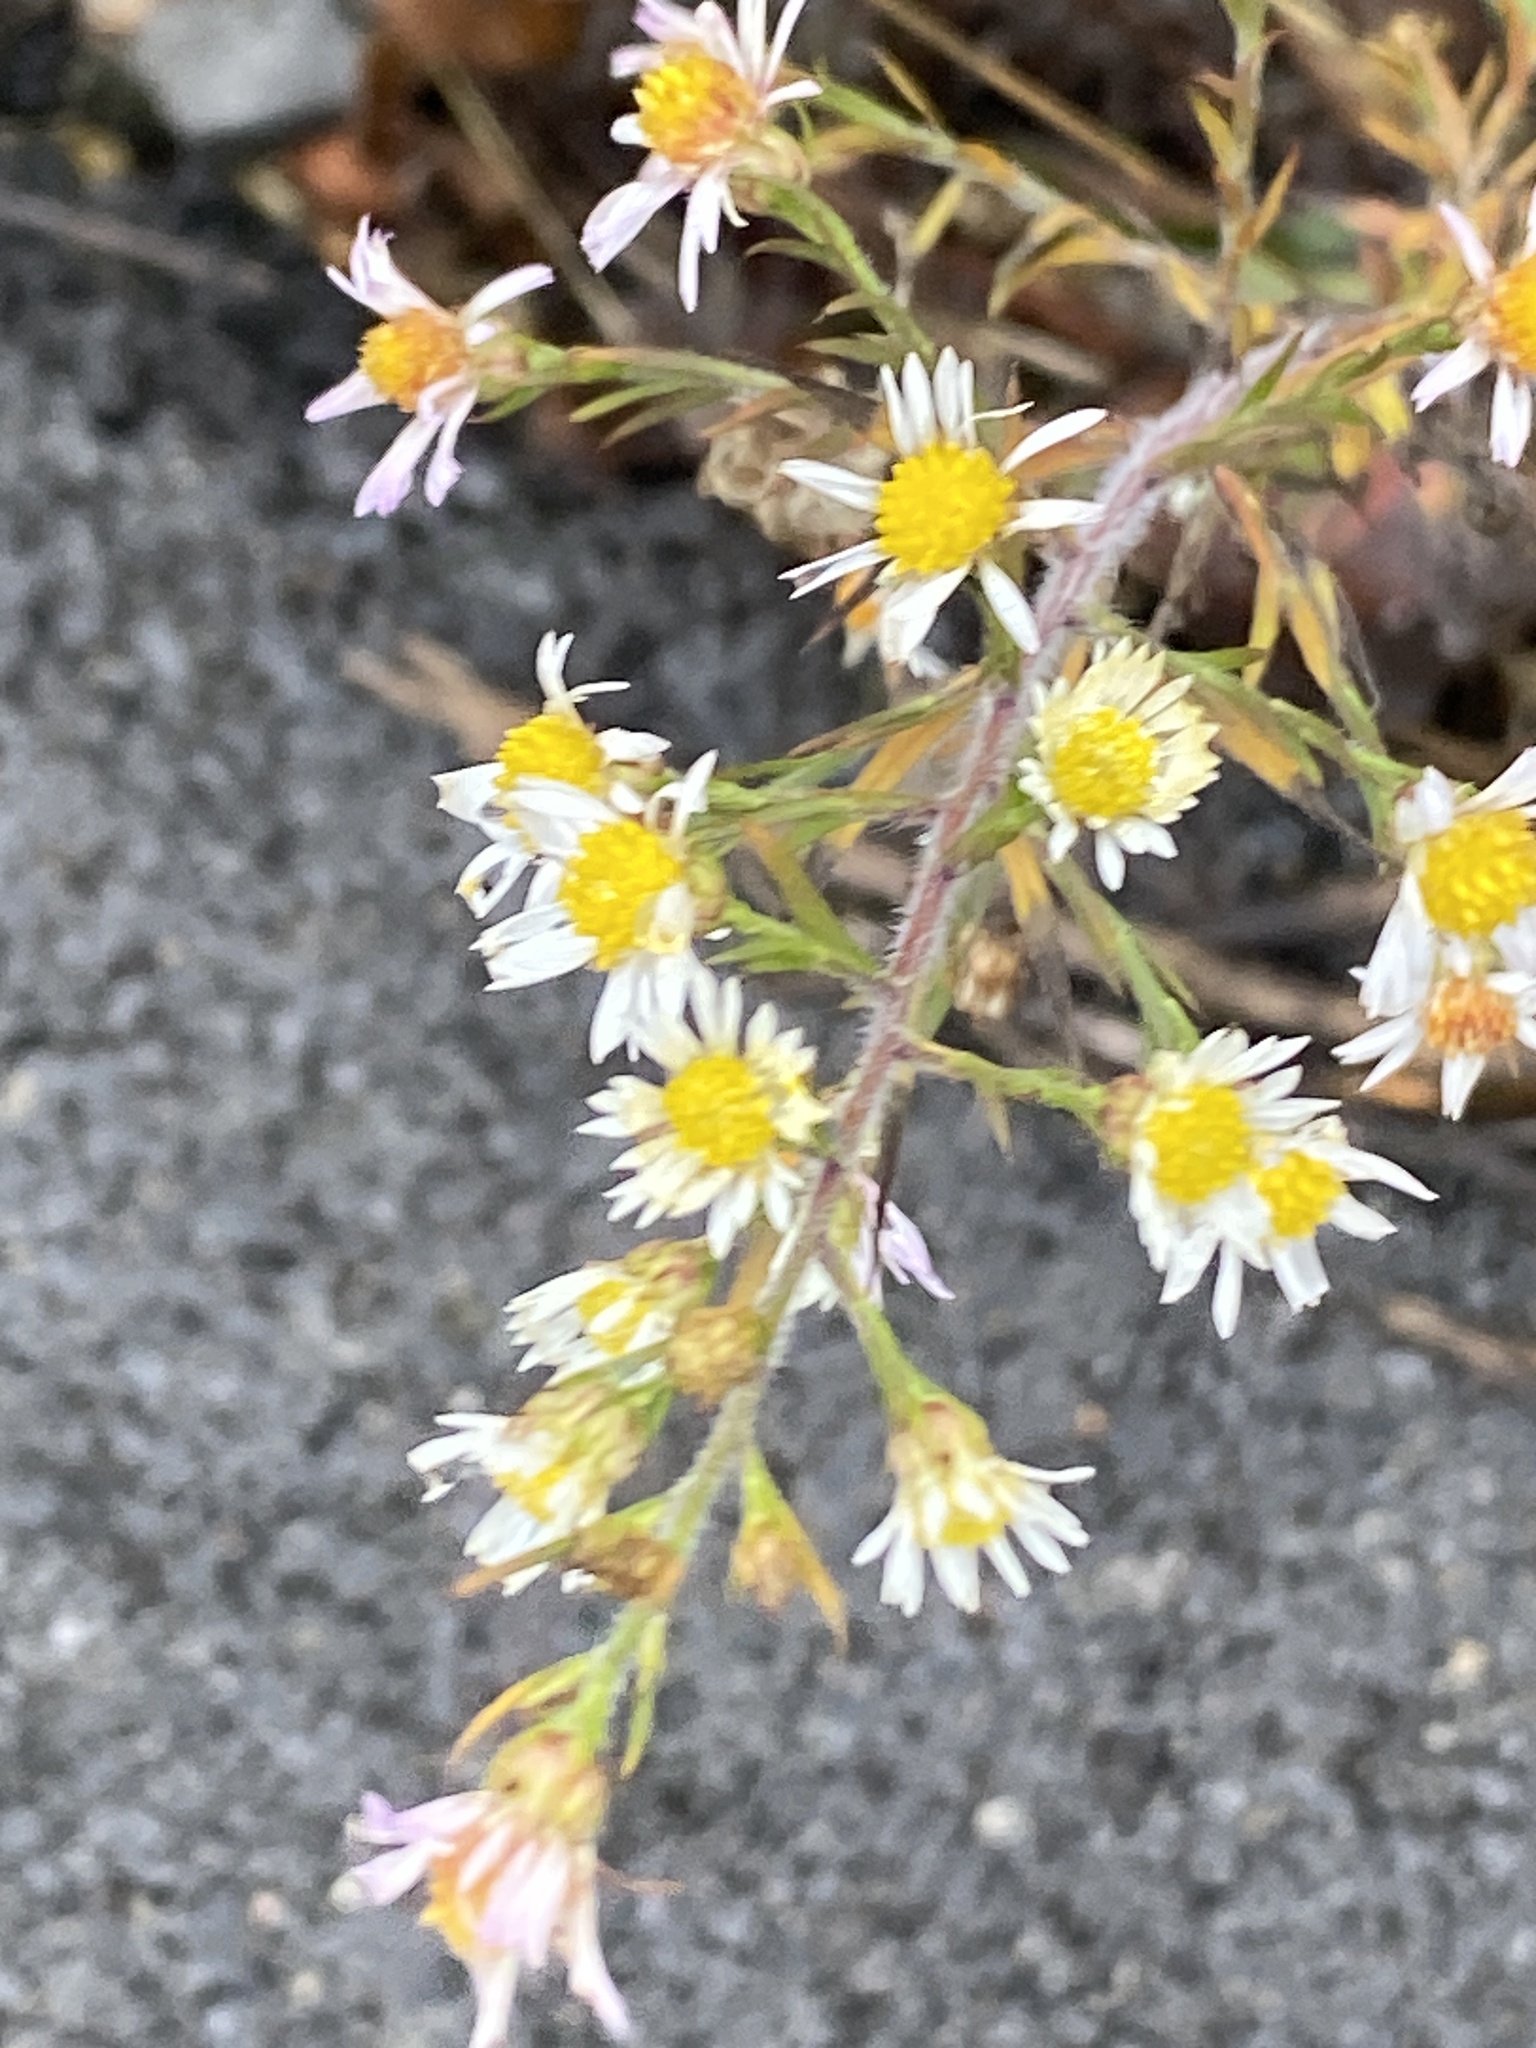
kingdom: Plantae
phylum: Tracheophyta
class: Magnoliopsida
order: Asterales
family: Asteraceae
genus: Symphyotrichum
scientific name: Symphyotrichum pilosum
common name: Awl aster
